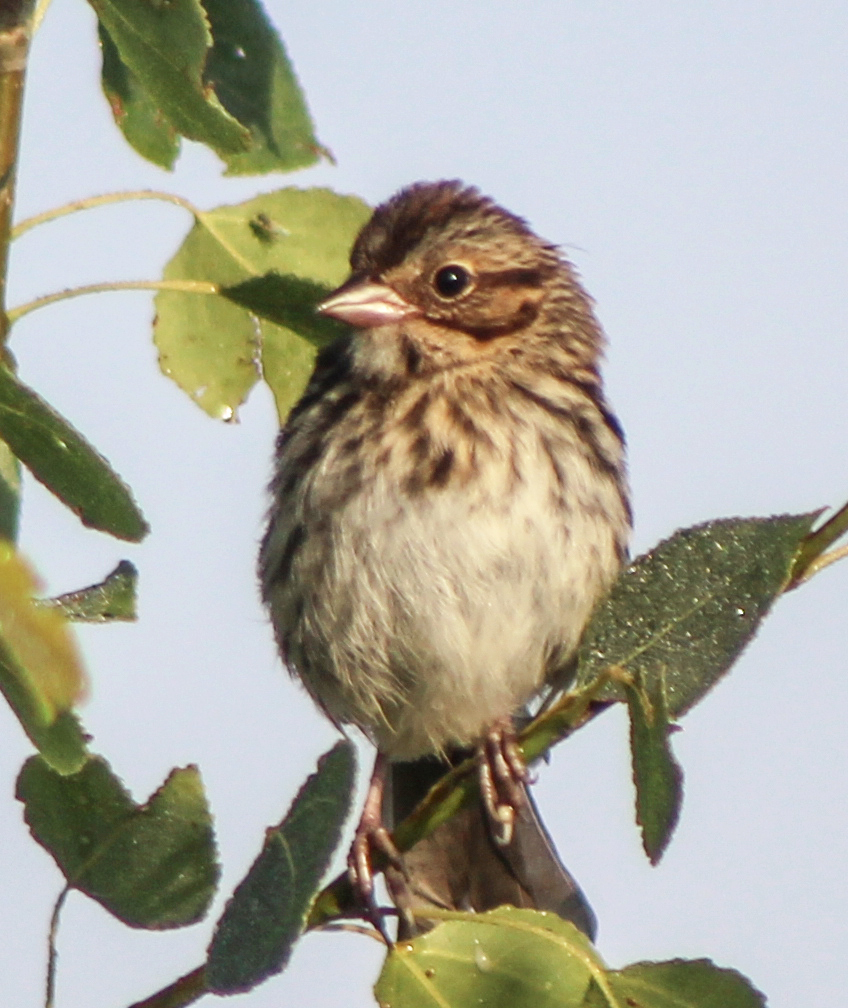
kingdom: Animalia
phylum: Chordata
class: Aves
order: Passeriformes
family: Passerellidae
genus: Melospiza
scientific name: Melospiza melodia
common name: Song sparrow
